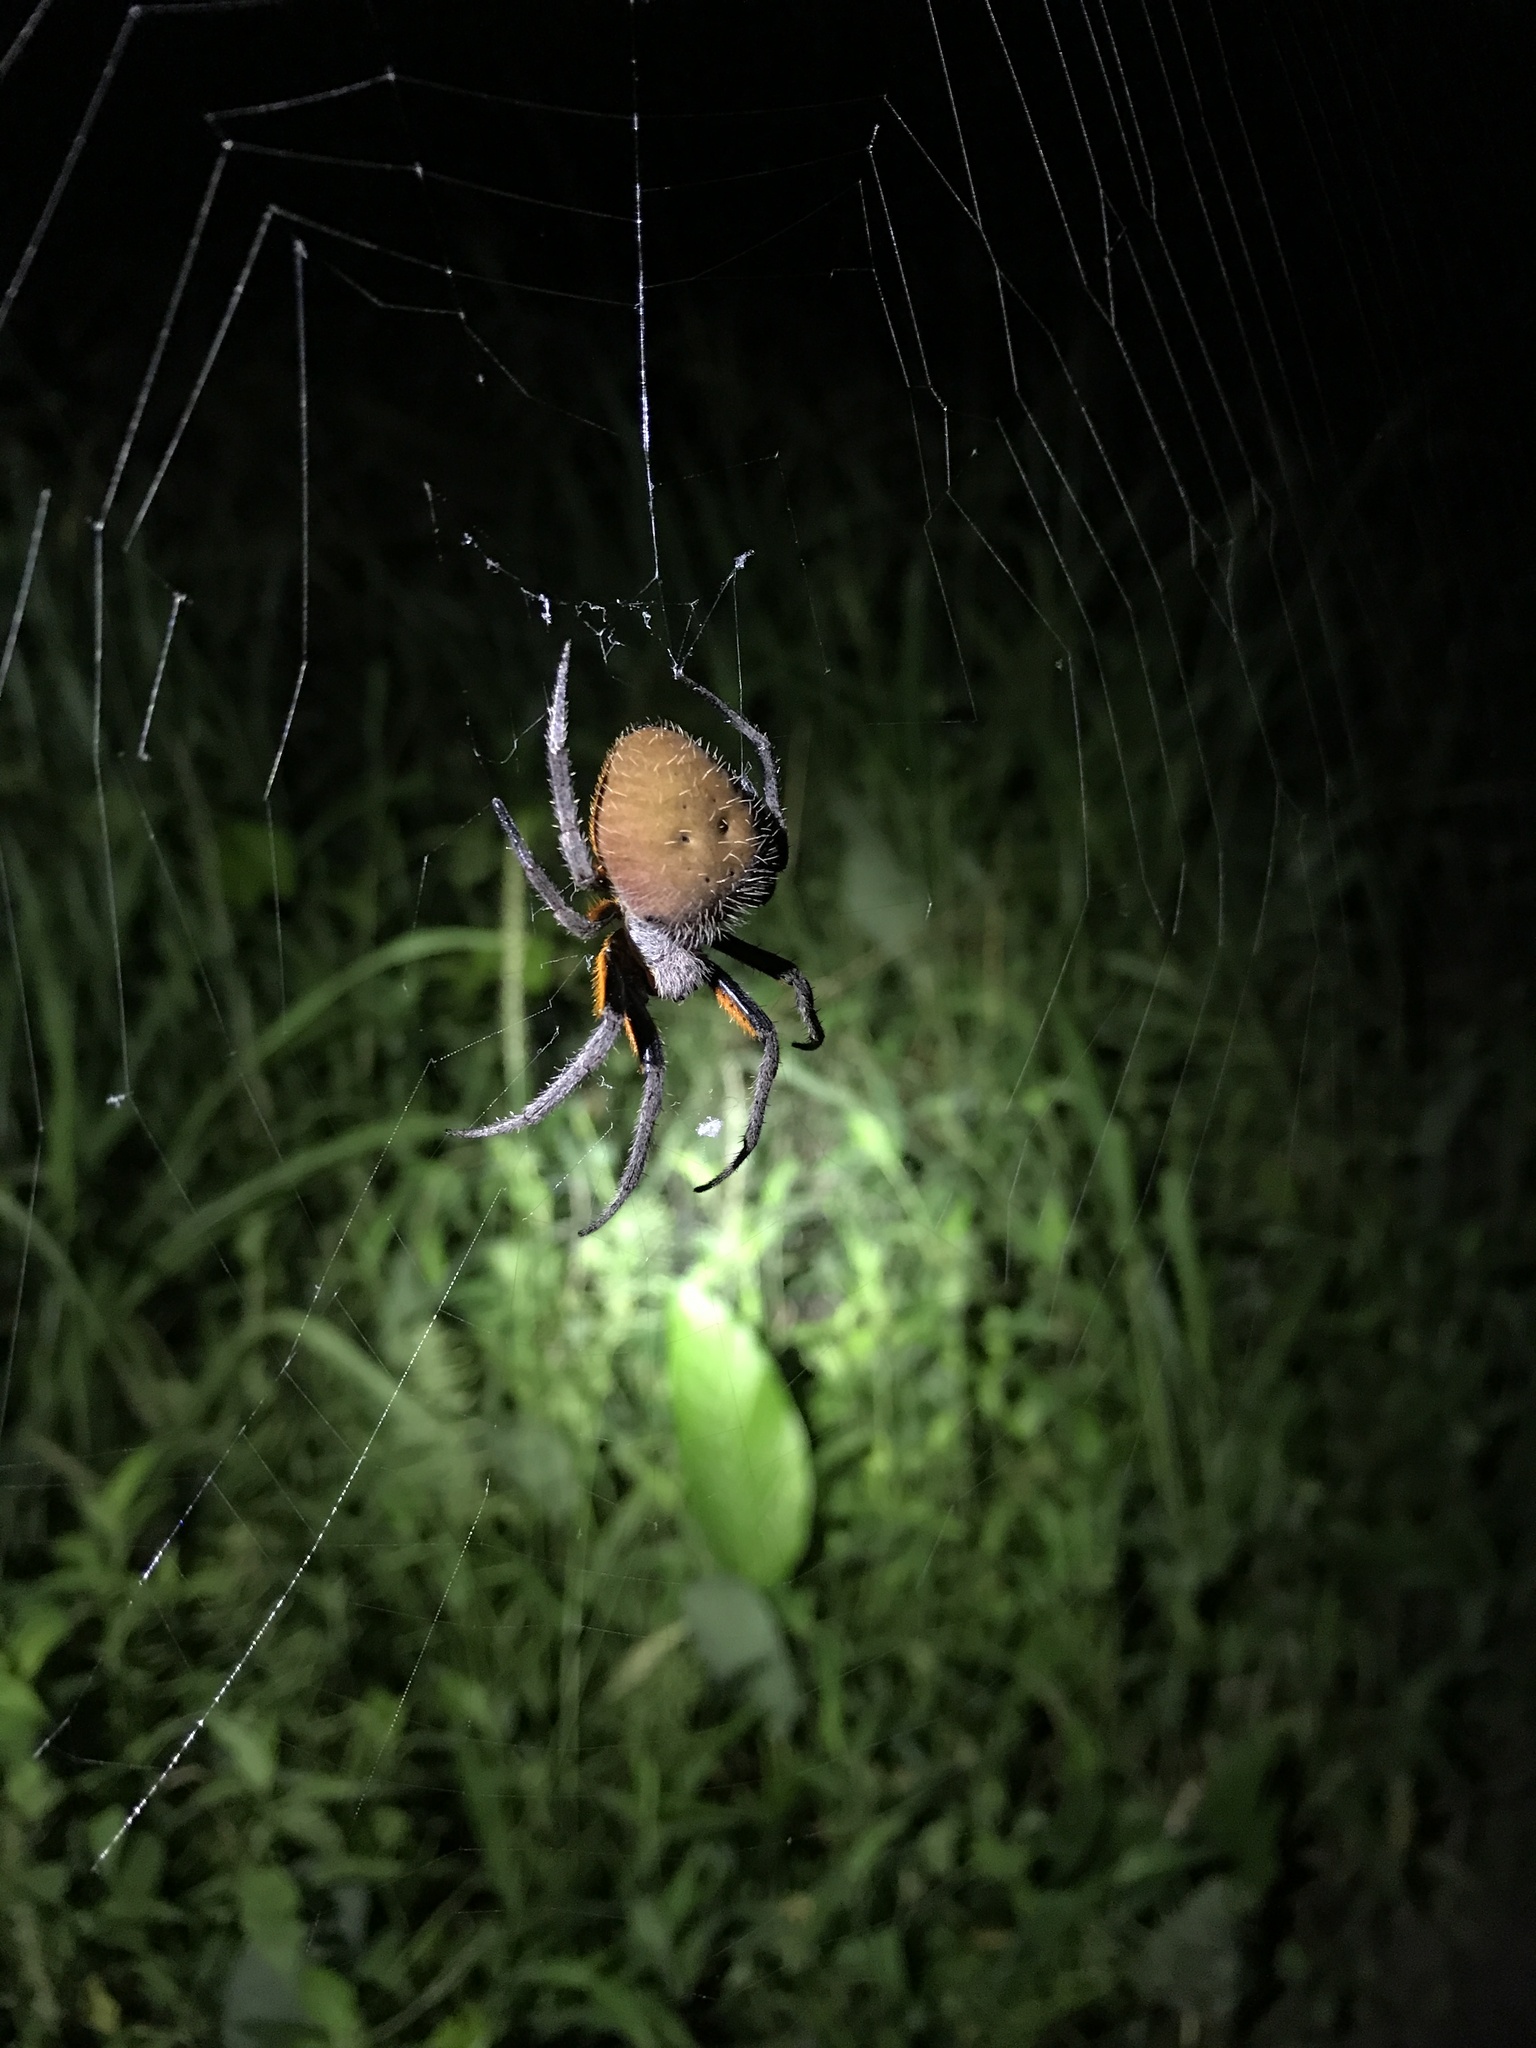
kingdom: Animalia
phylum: Arthropoda
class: Arachnida
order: Araneae
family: Araneidae
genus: Eriophora
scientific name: Eriophora fuliginea
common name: Orb weavers
